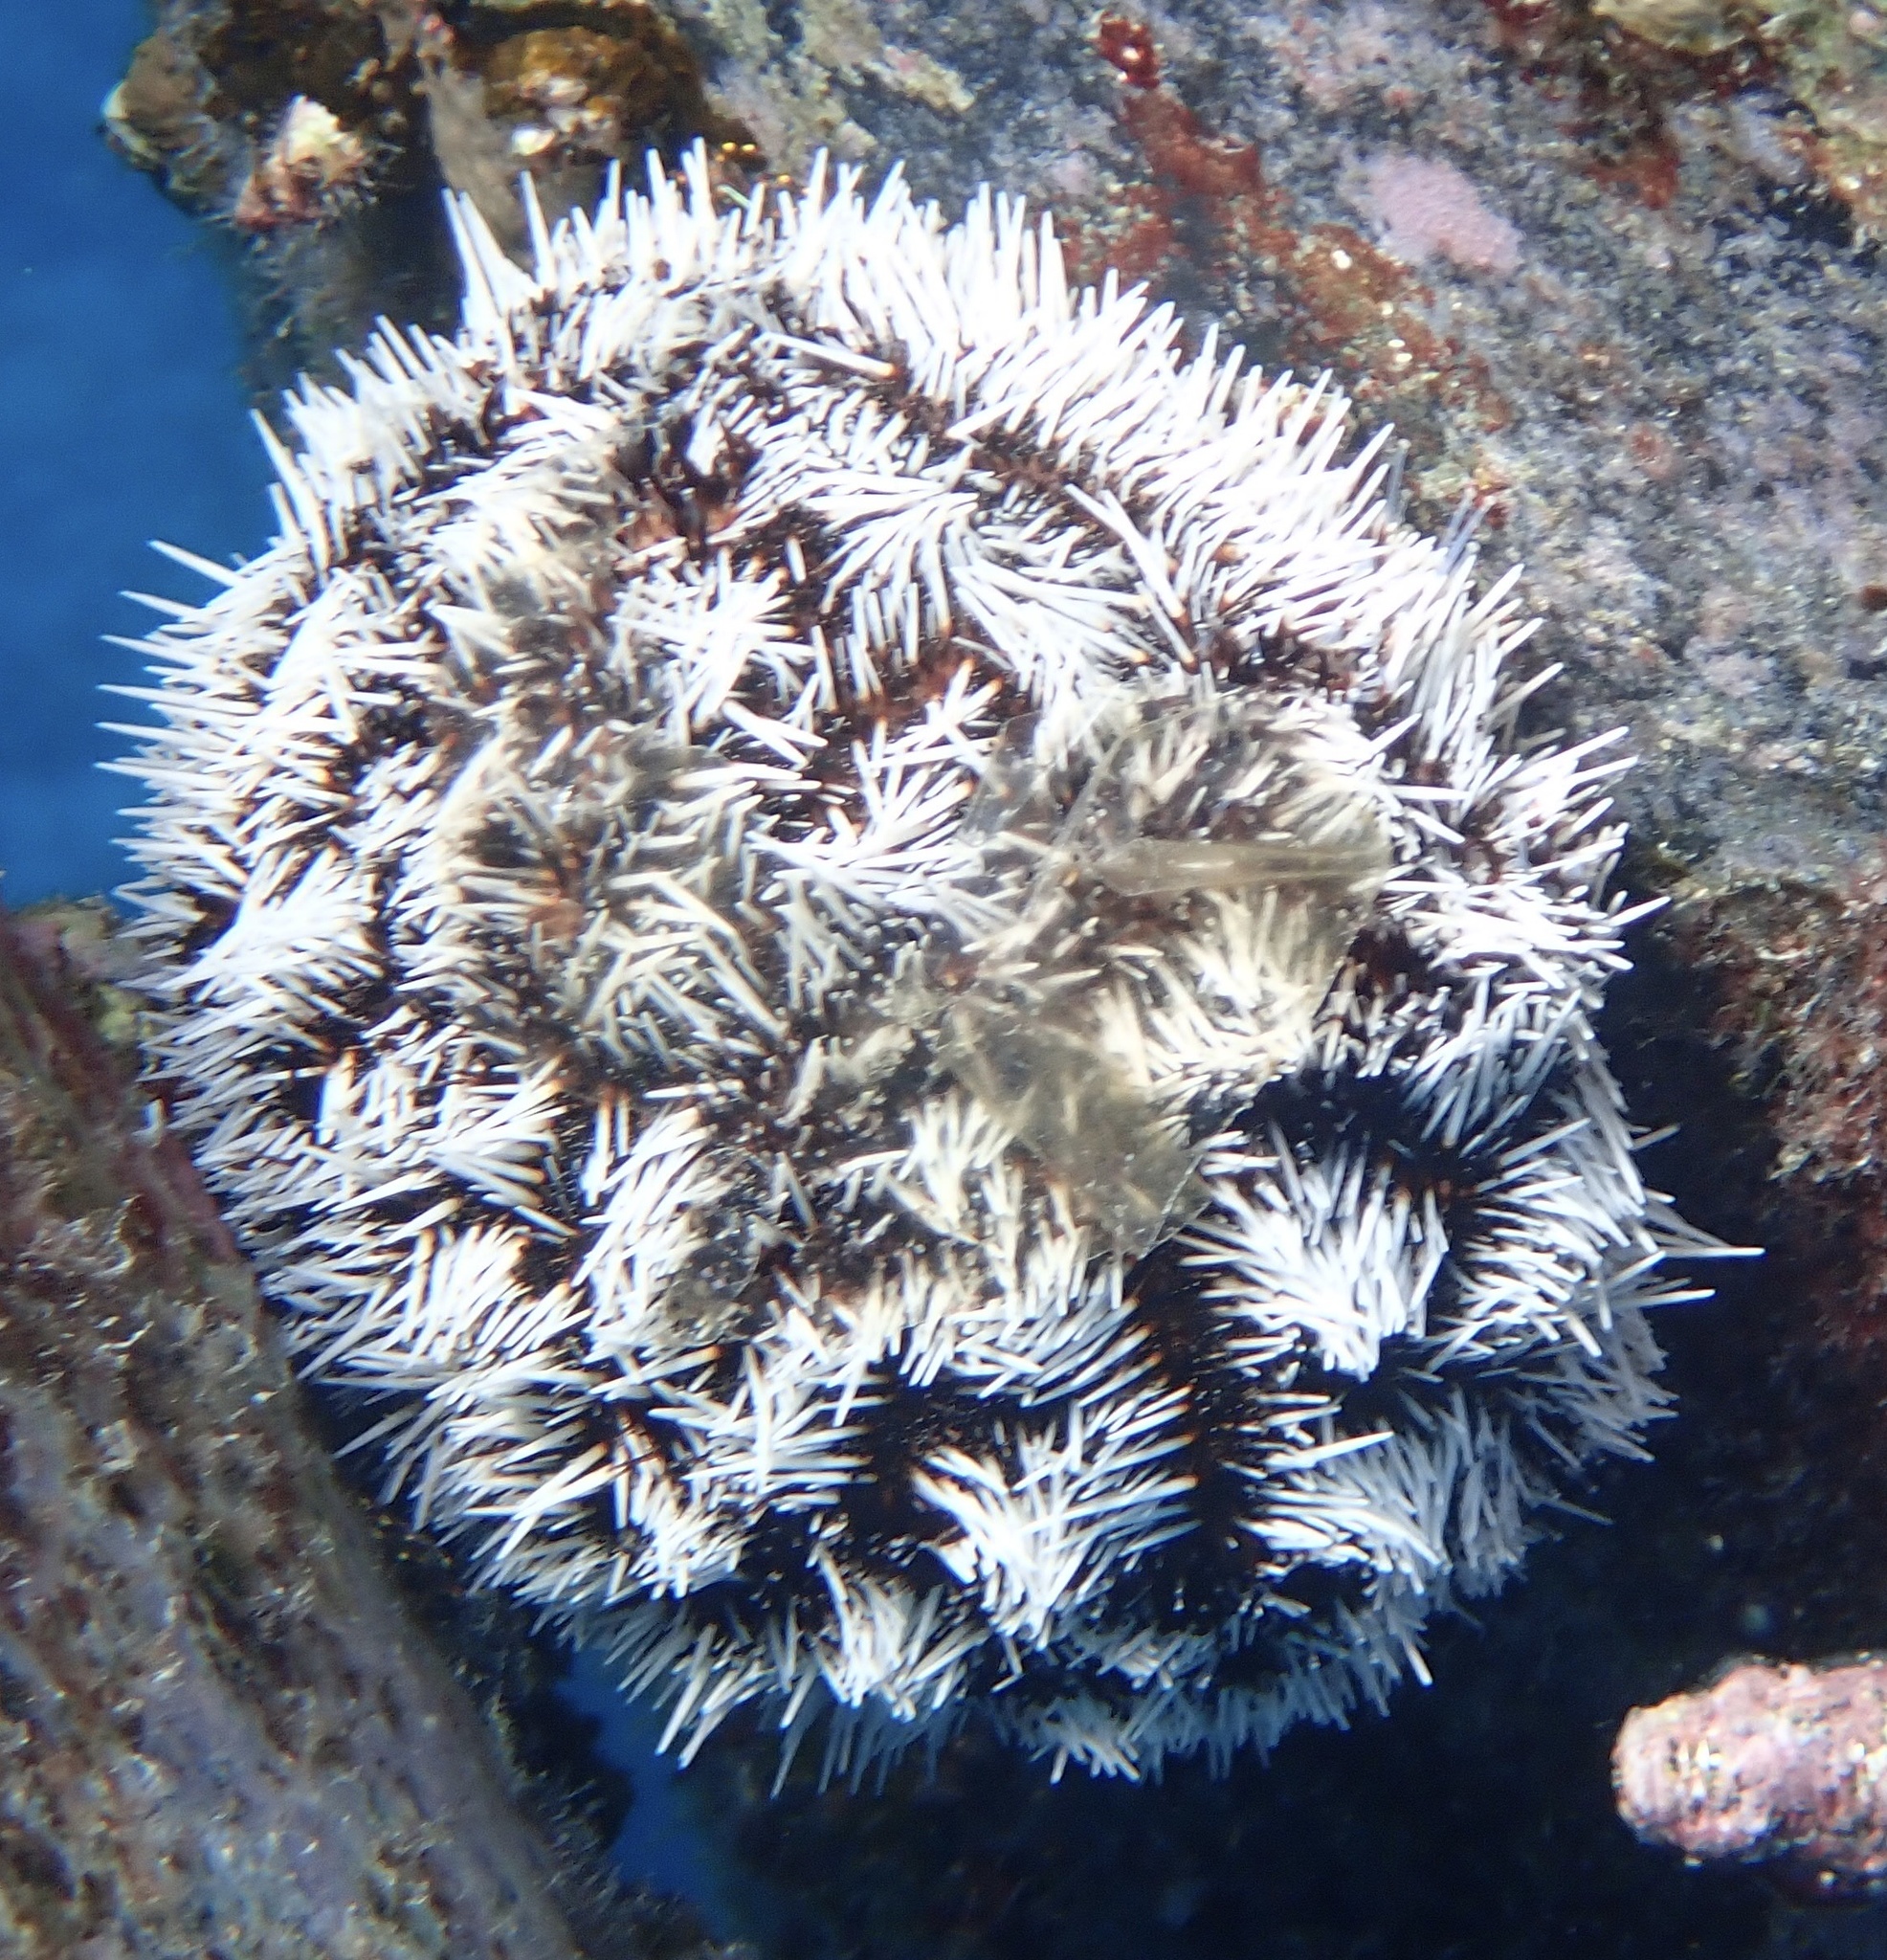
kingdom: Animalia
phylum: Echinodermata
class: Echinoidea
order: Camarodonta
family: Toxopneustidae
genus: Tripneustes
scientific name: Tripneustes ventricosus
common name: West indian sea egg
